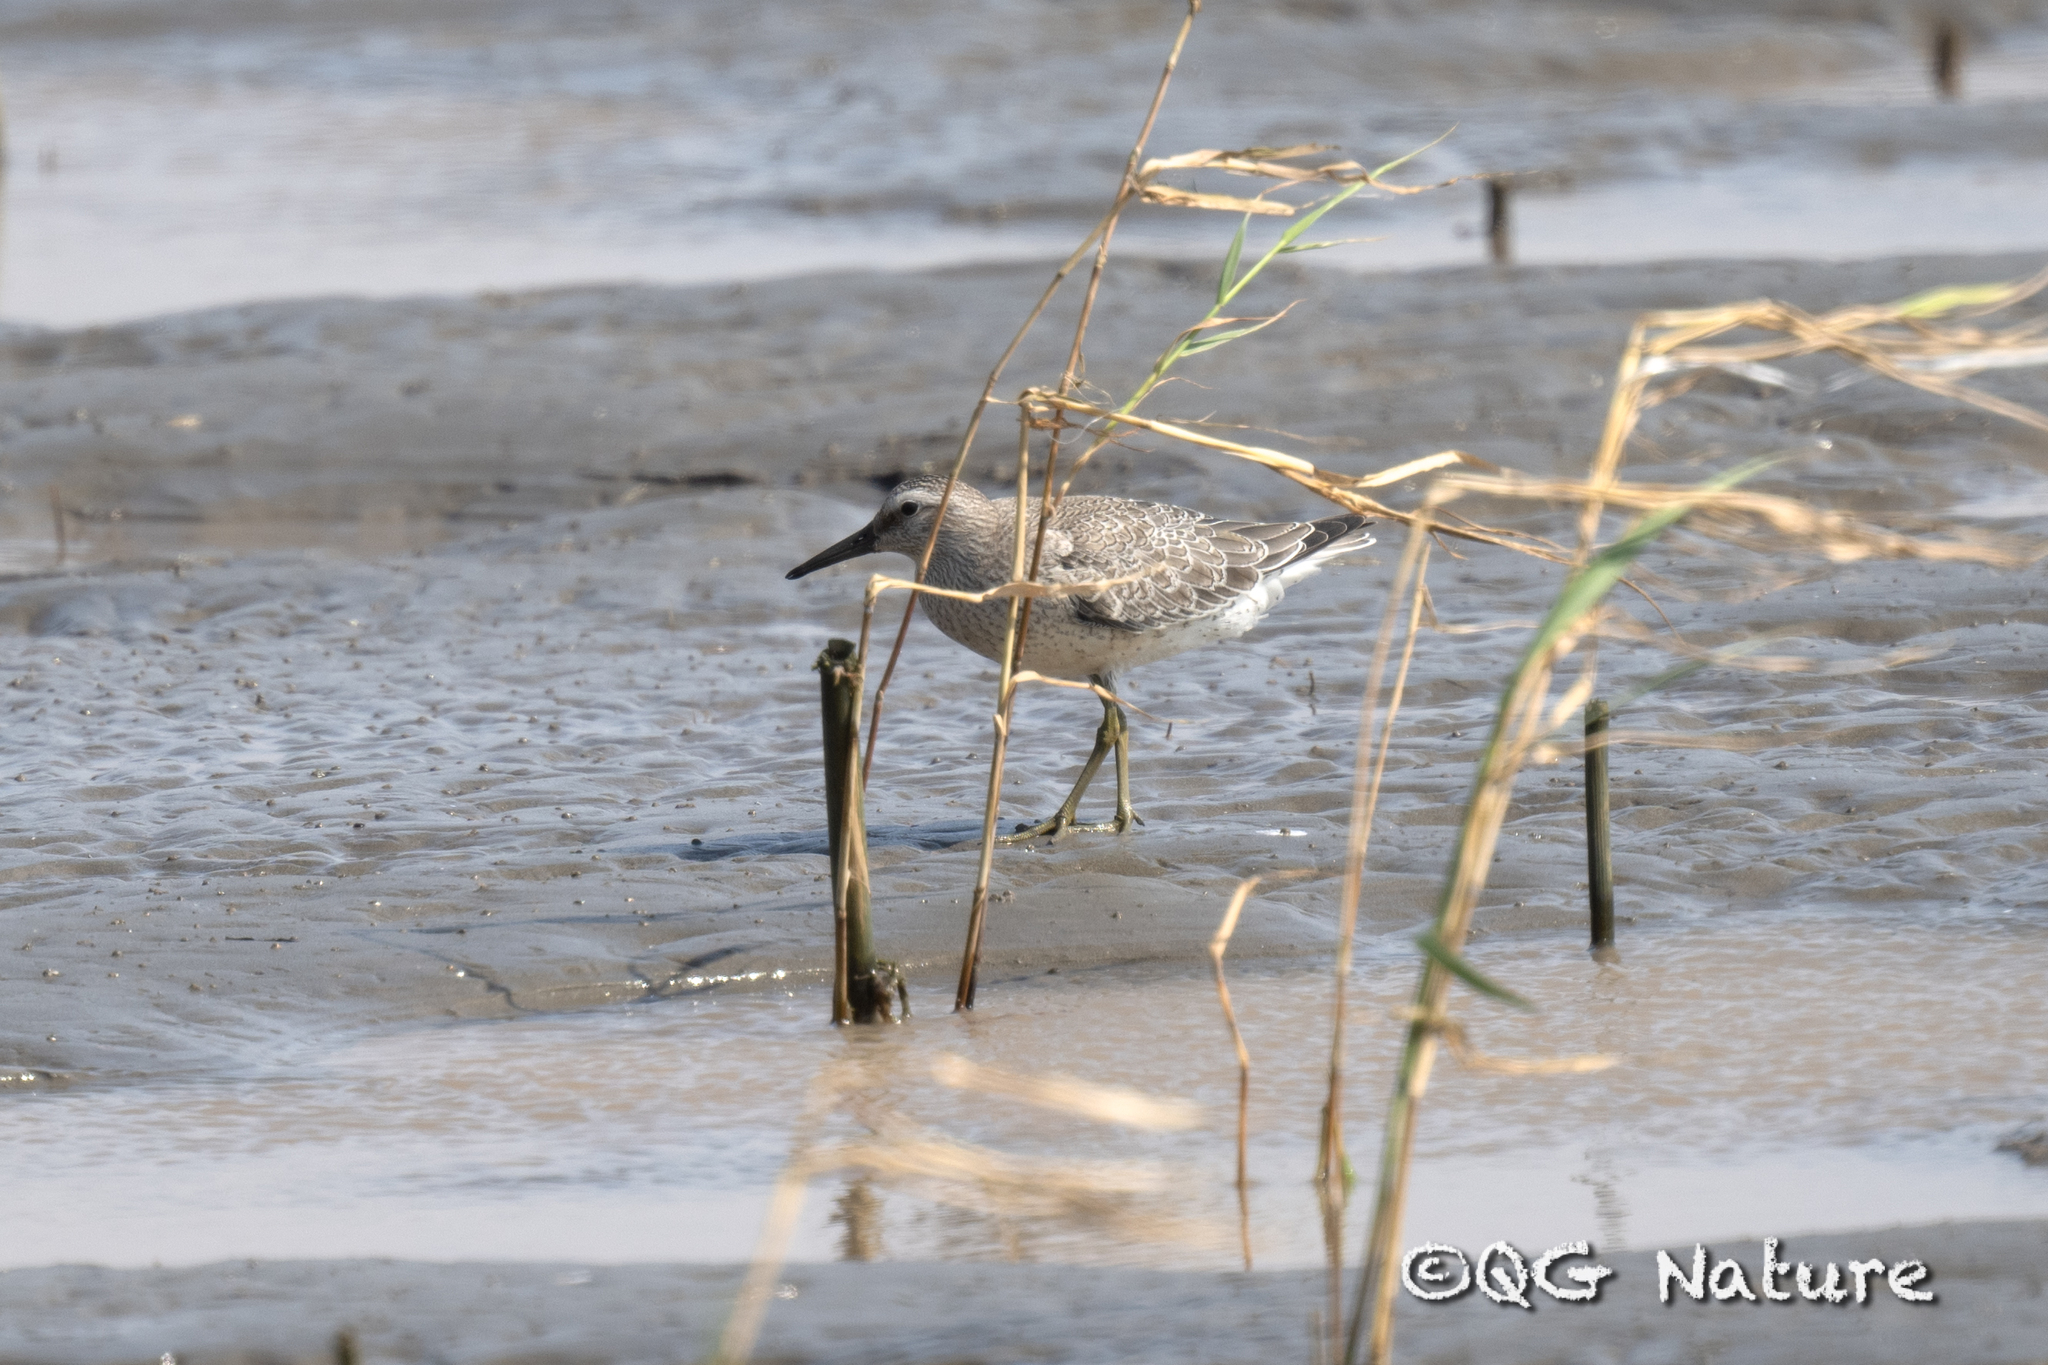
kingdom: Animalia
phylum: Chordata
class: Aves
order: Charadriiformes
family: Scolopacidae
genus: Calidris
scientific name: Calidris canutus
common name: Red knot
